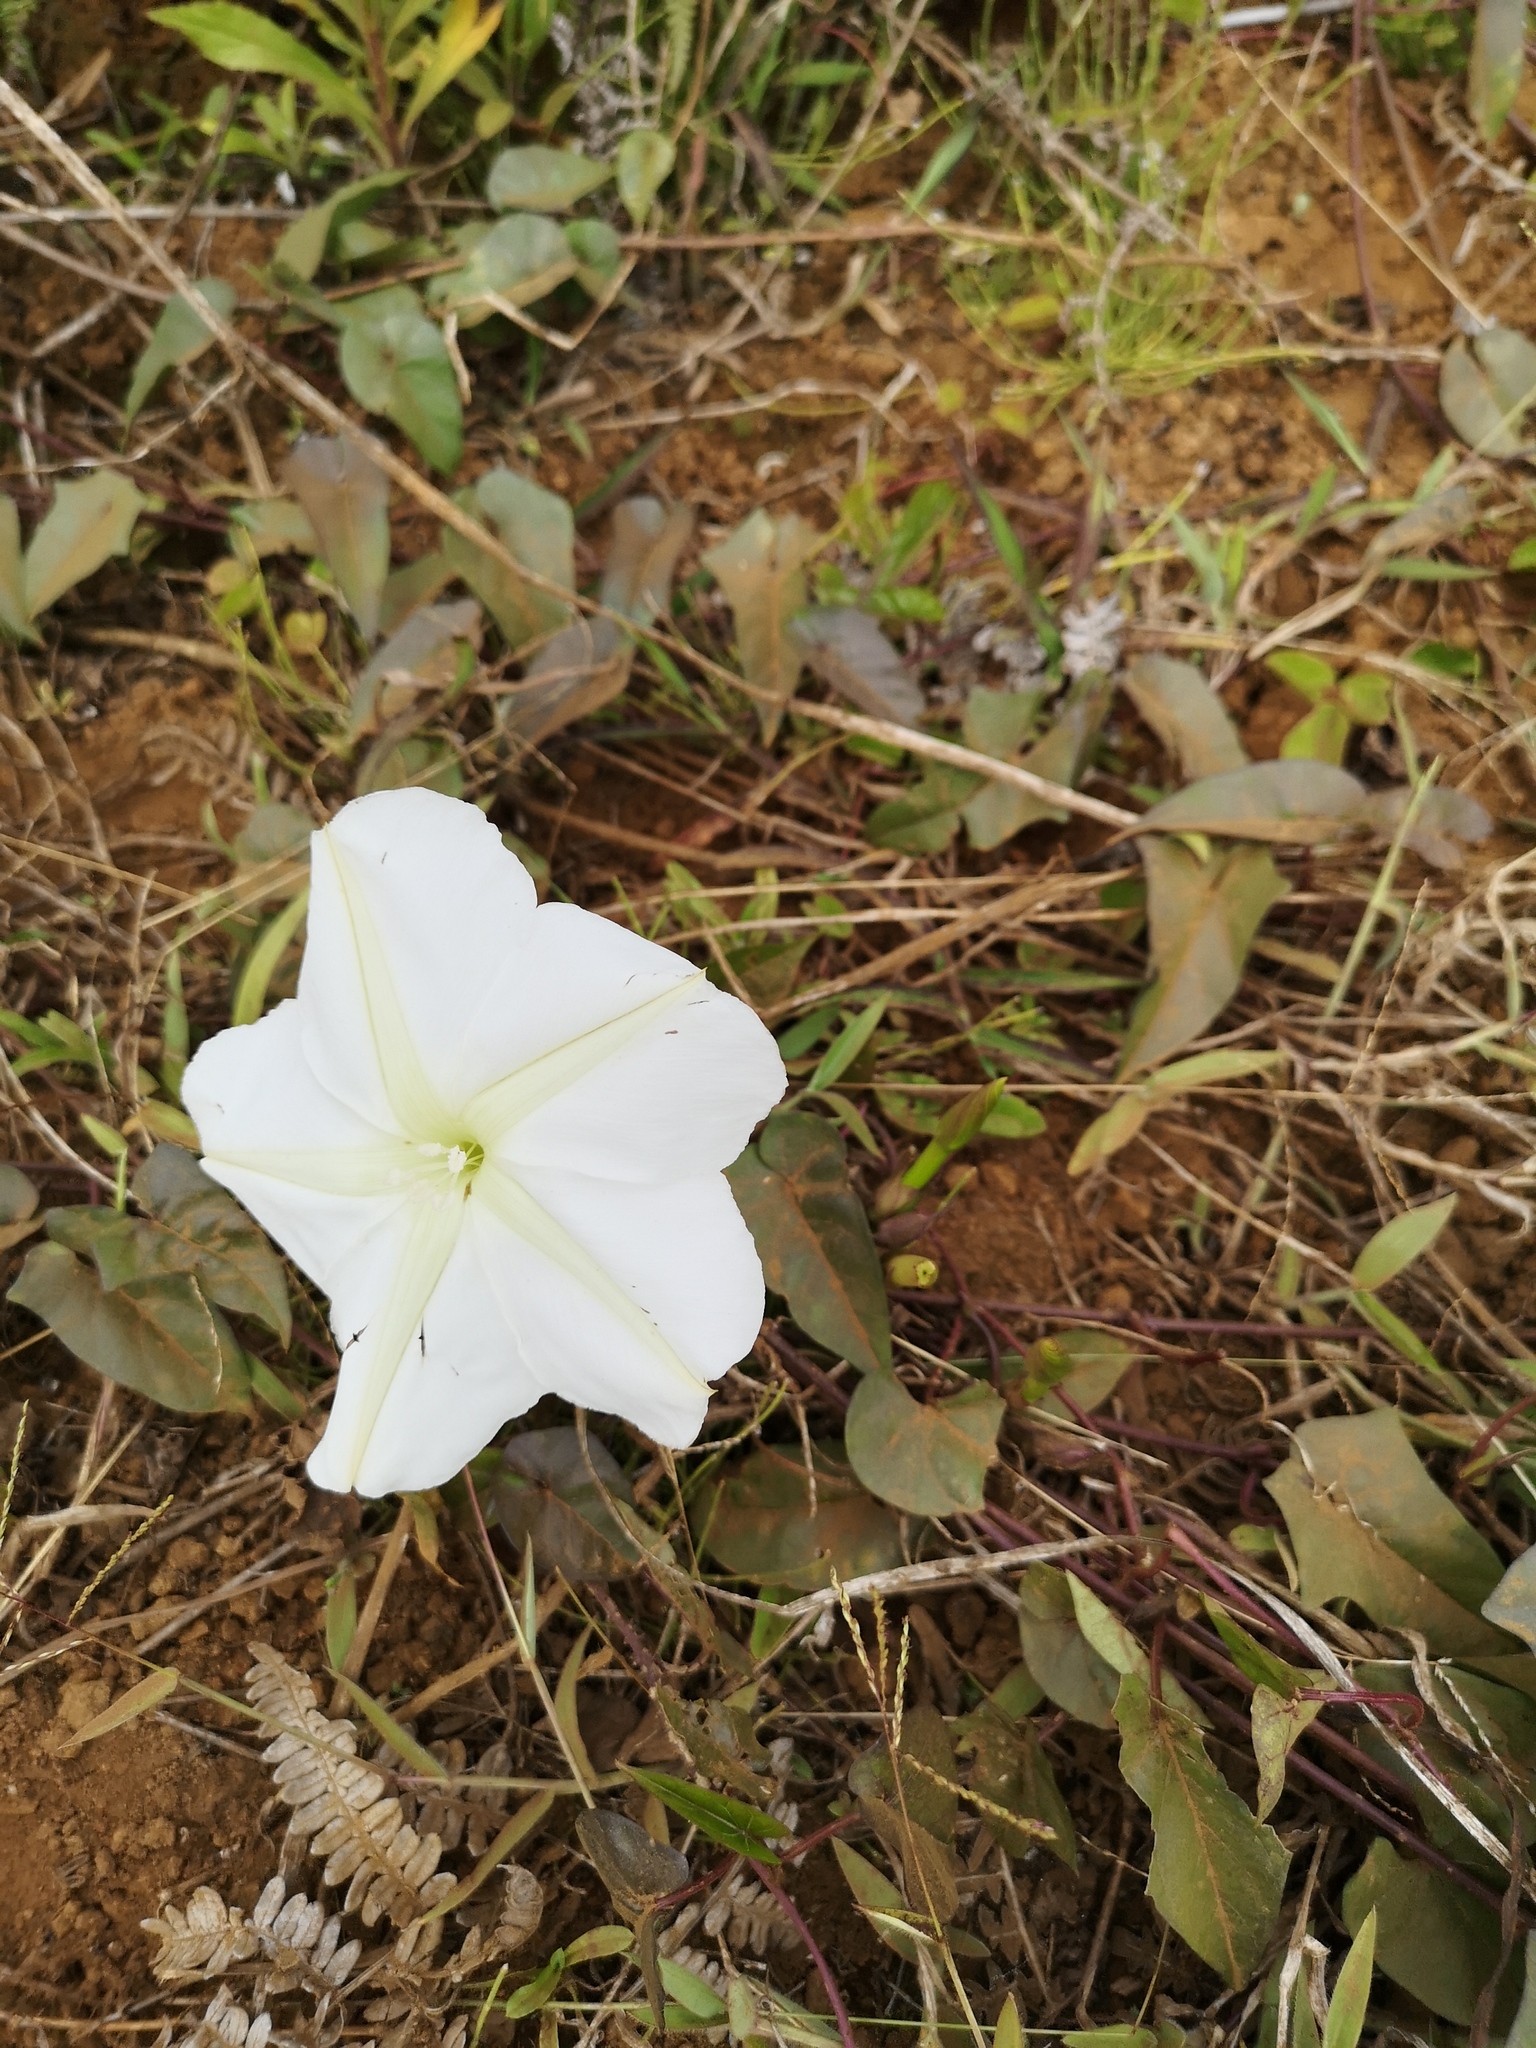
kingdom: Plantae
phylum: Tracheophyta
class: Magnoliopsida
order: Solanales
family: Convolvulaceae
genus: Ipomoea
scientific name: Ipomoea alba
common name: Moonflower
